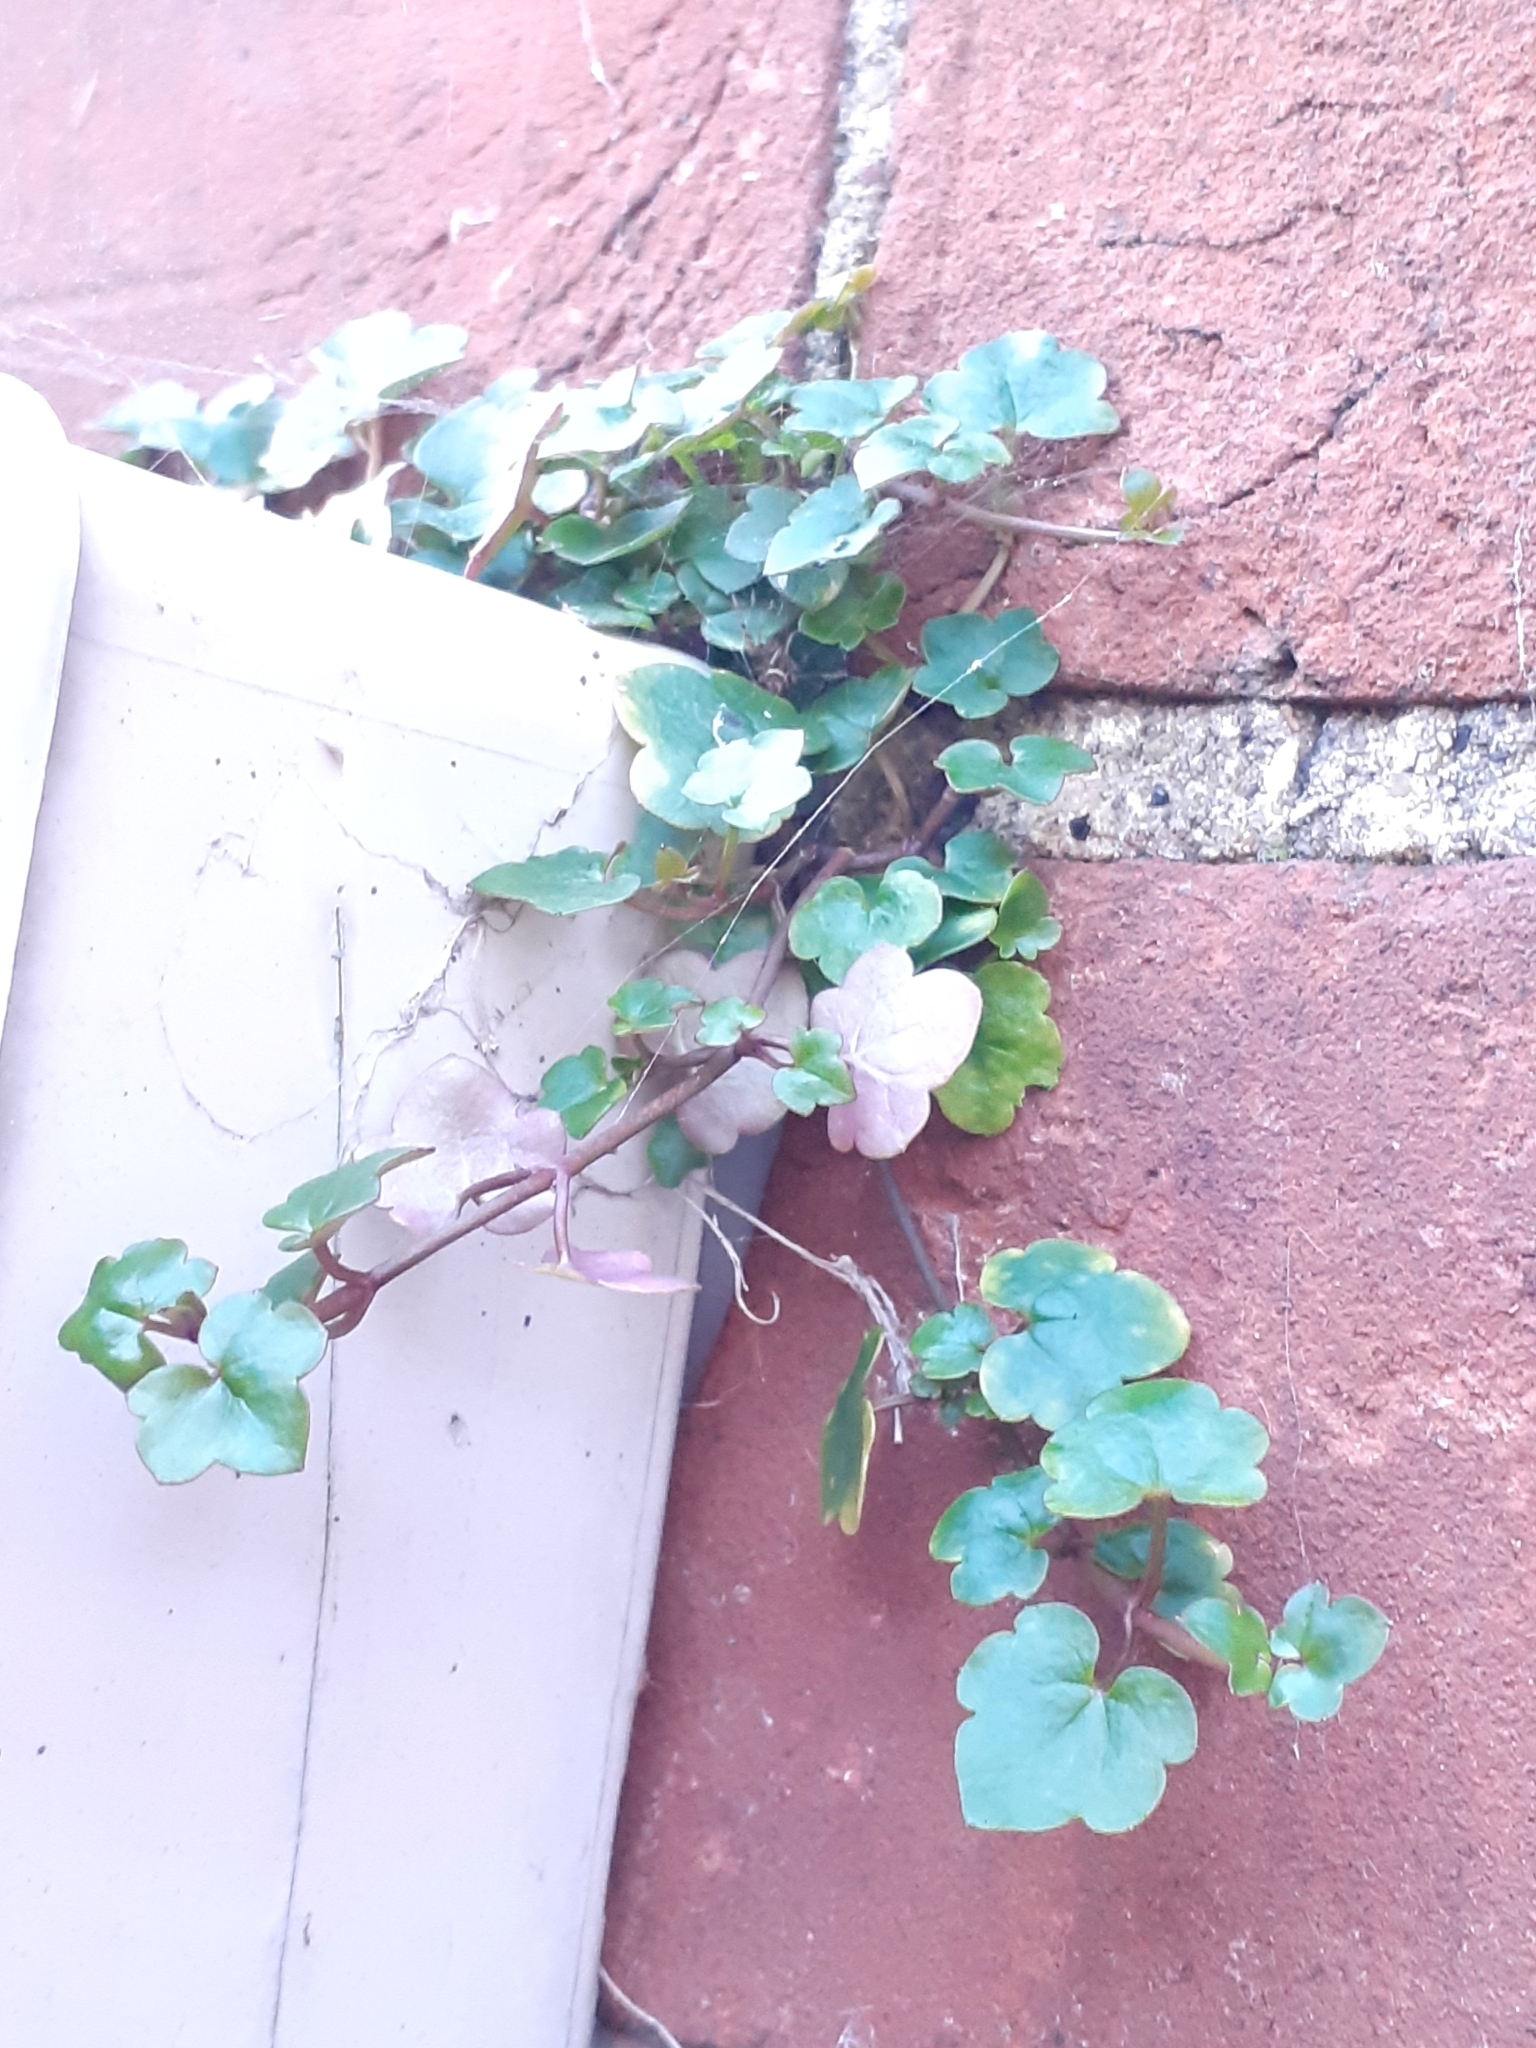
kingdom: Plantae
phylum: Tracheophyta
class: Magnoliopsida
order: Lamiales
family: Plantaginaceae
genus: Cymbalaria
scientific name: Cymbalaria muralis
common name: Ivy-leaved toadflax
